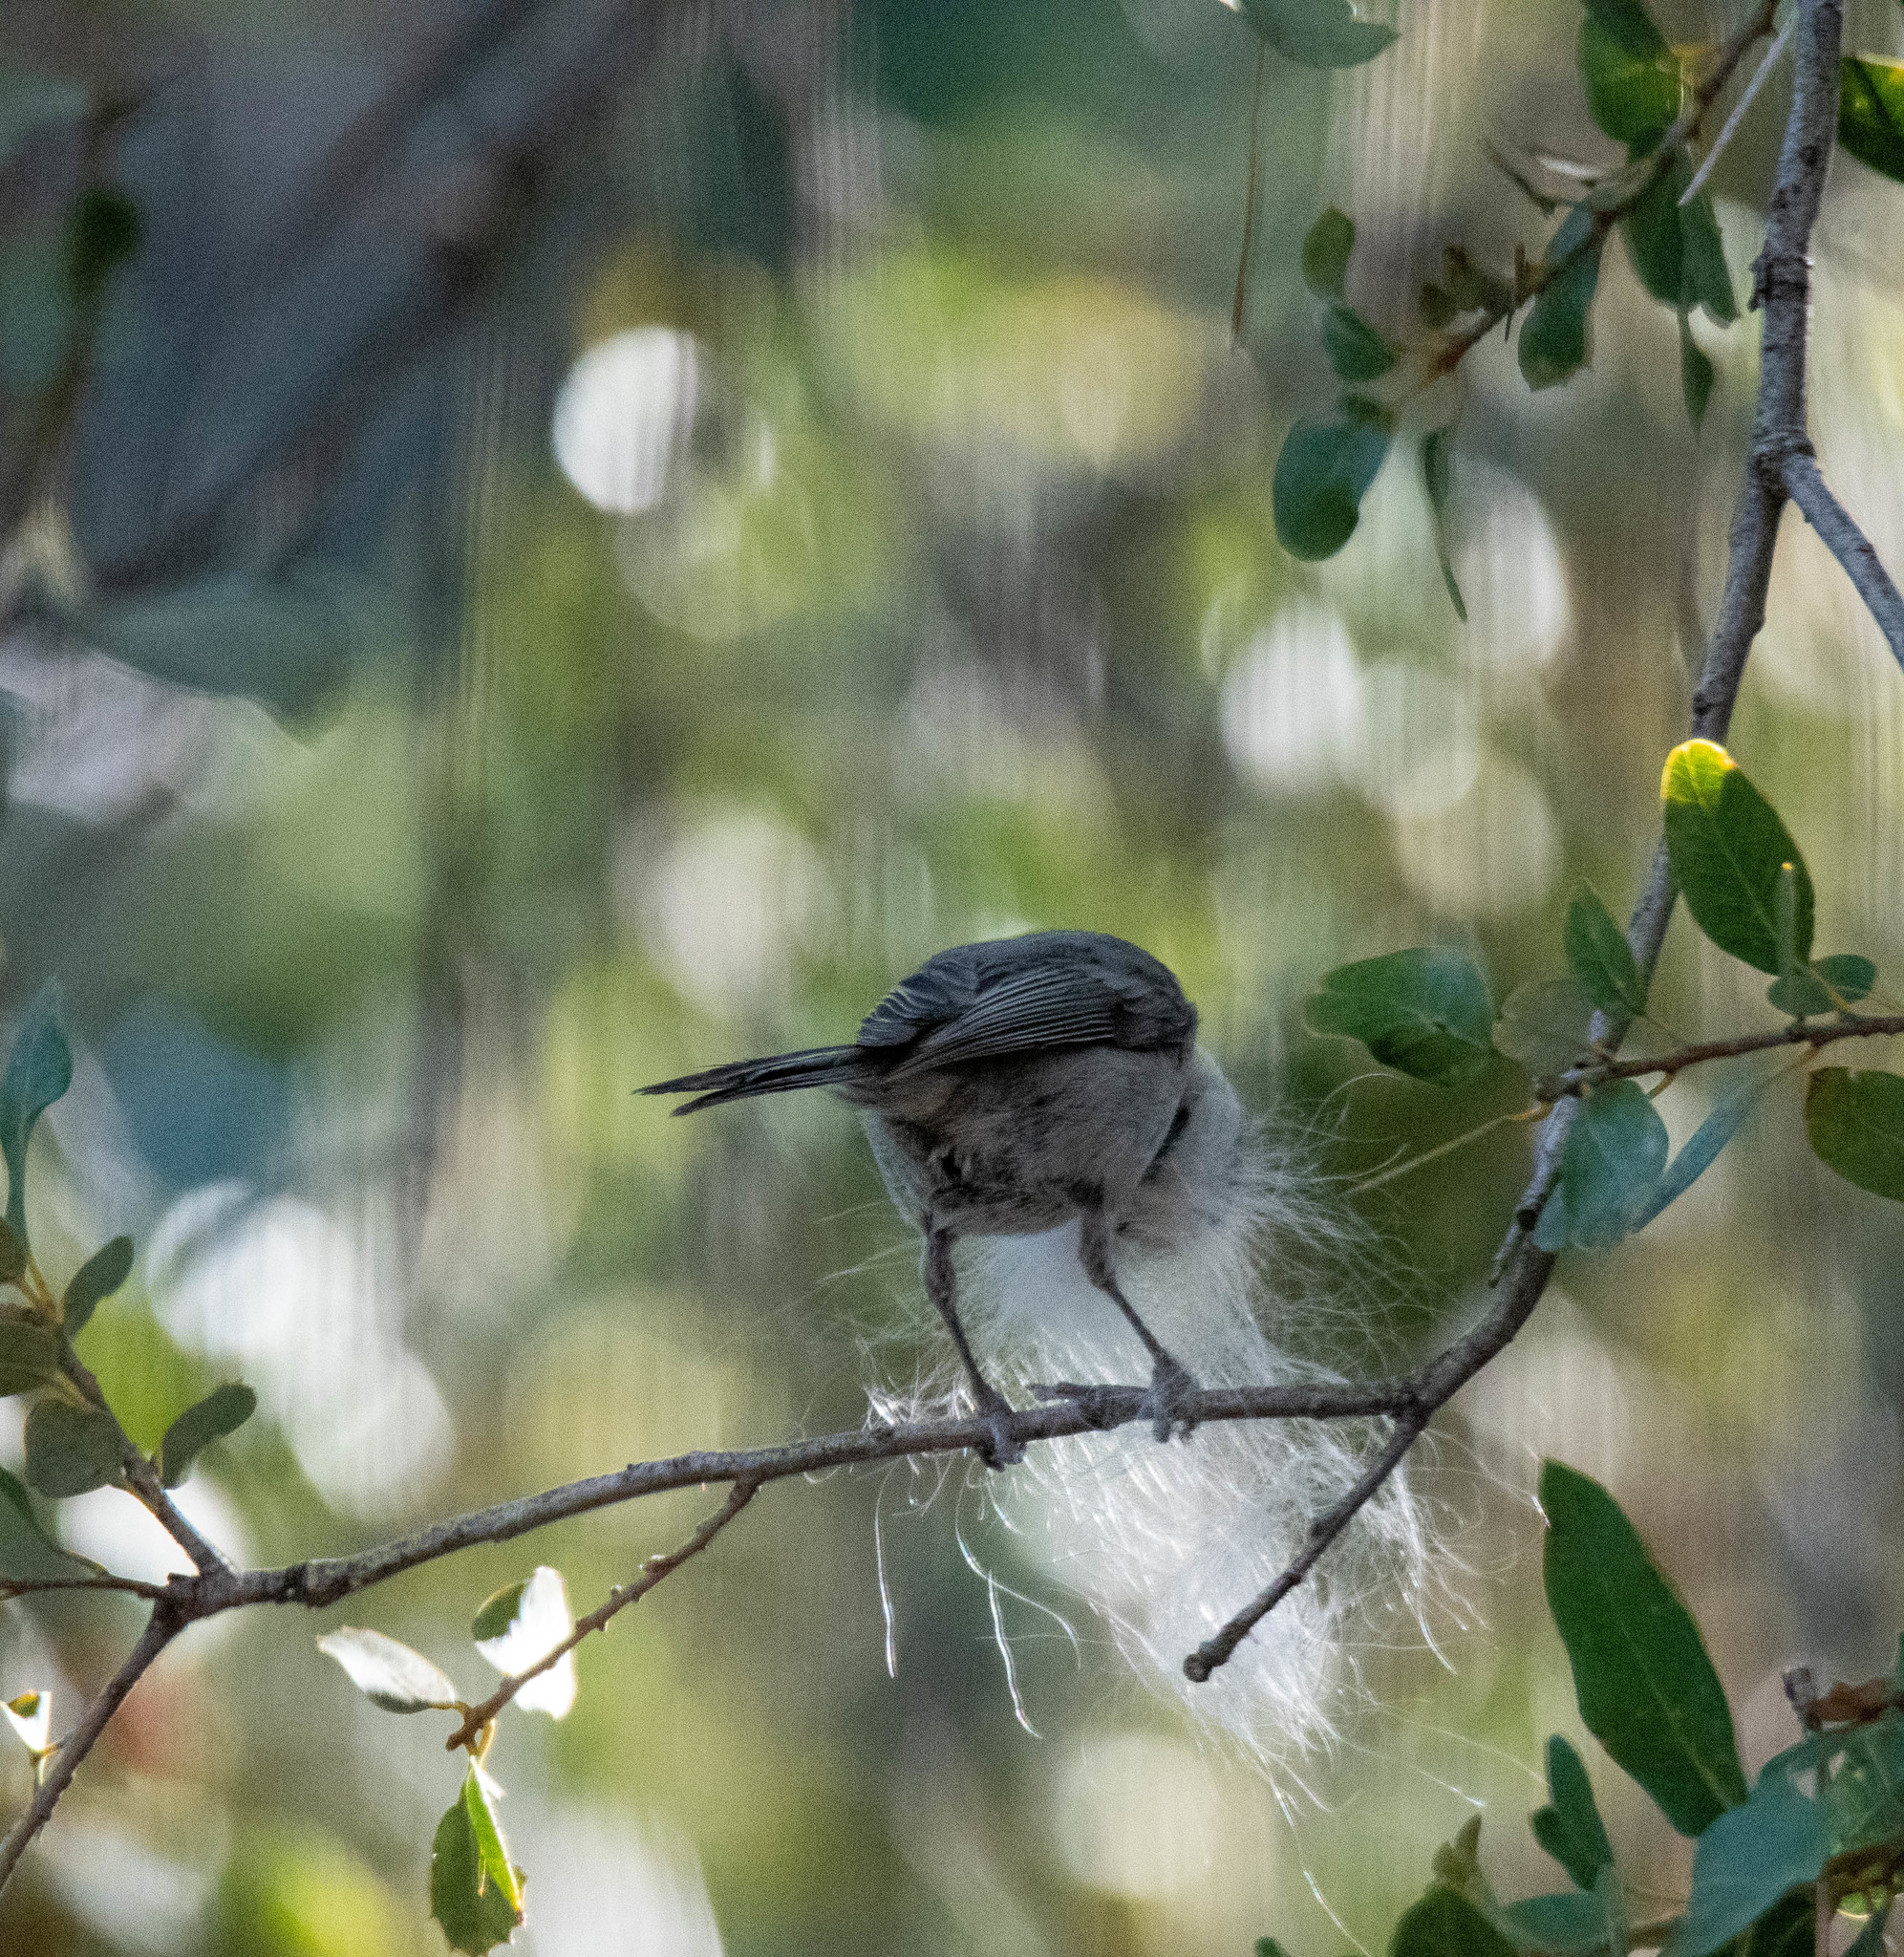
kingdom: Animalia
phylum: Chordata
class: Aves
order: Passeriformes
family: Paridae
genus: Poecile
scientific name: Poecile gambeli
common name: Mountain chickadee
